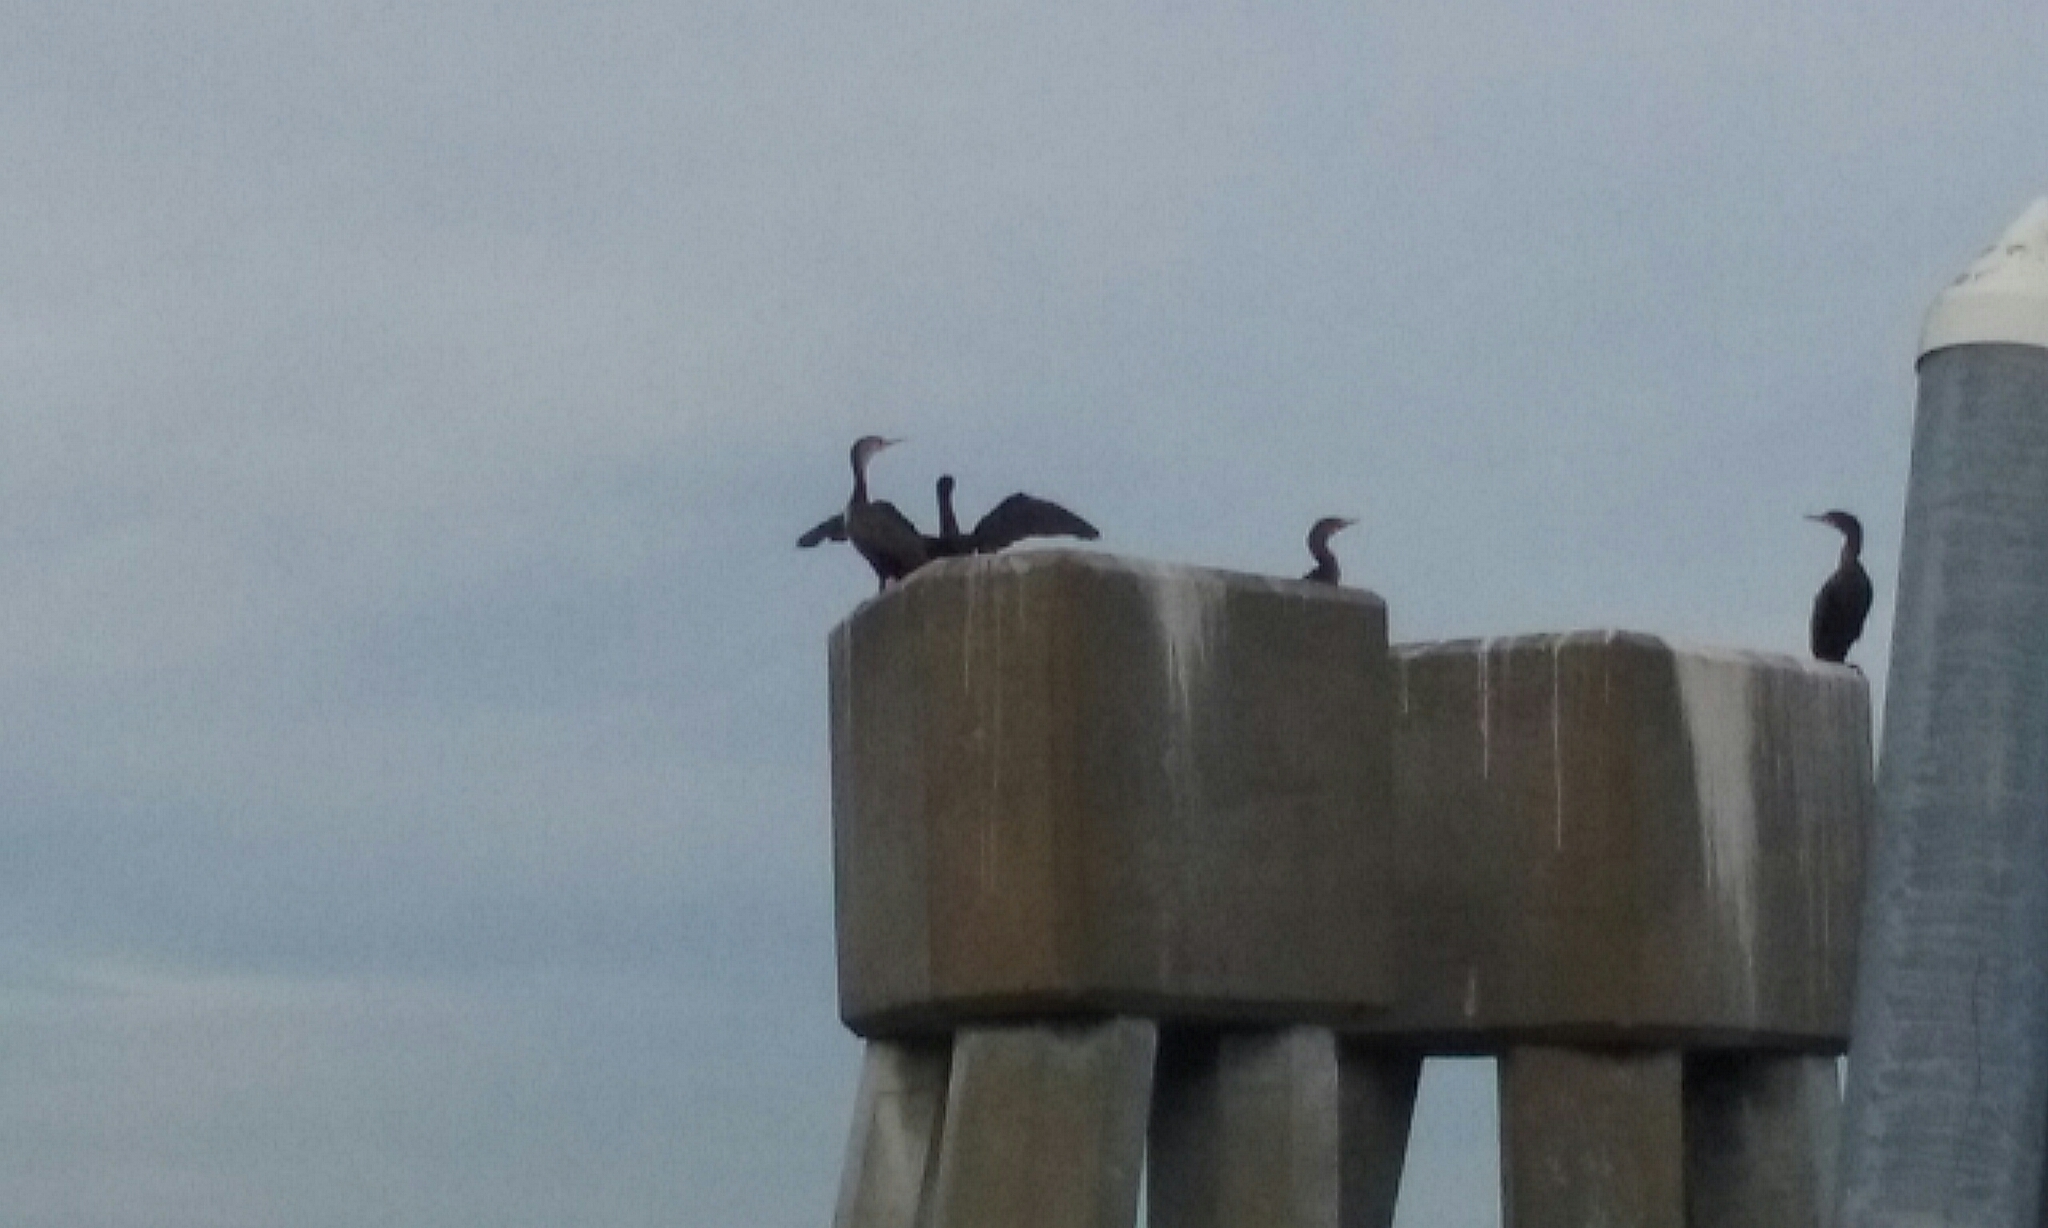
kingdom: Animalia
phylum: Chordata
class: Aves
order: Suliformes
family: Phalacrocoracidae
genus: Phalacrocorax
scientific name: Phalacrocorax auritus
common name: Double-crested cormorant
